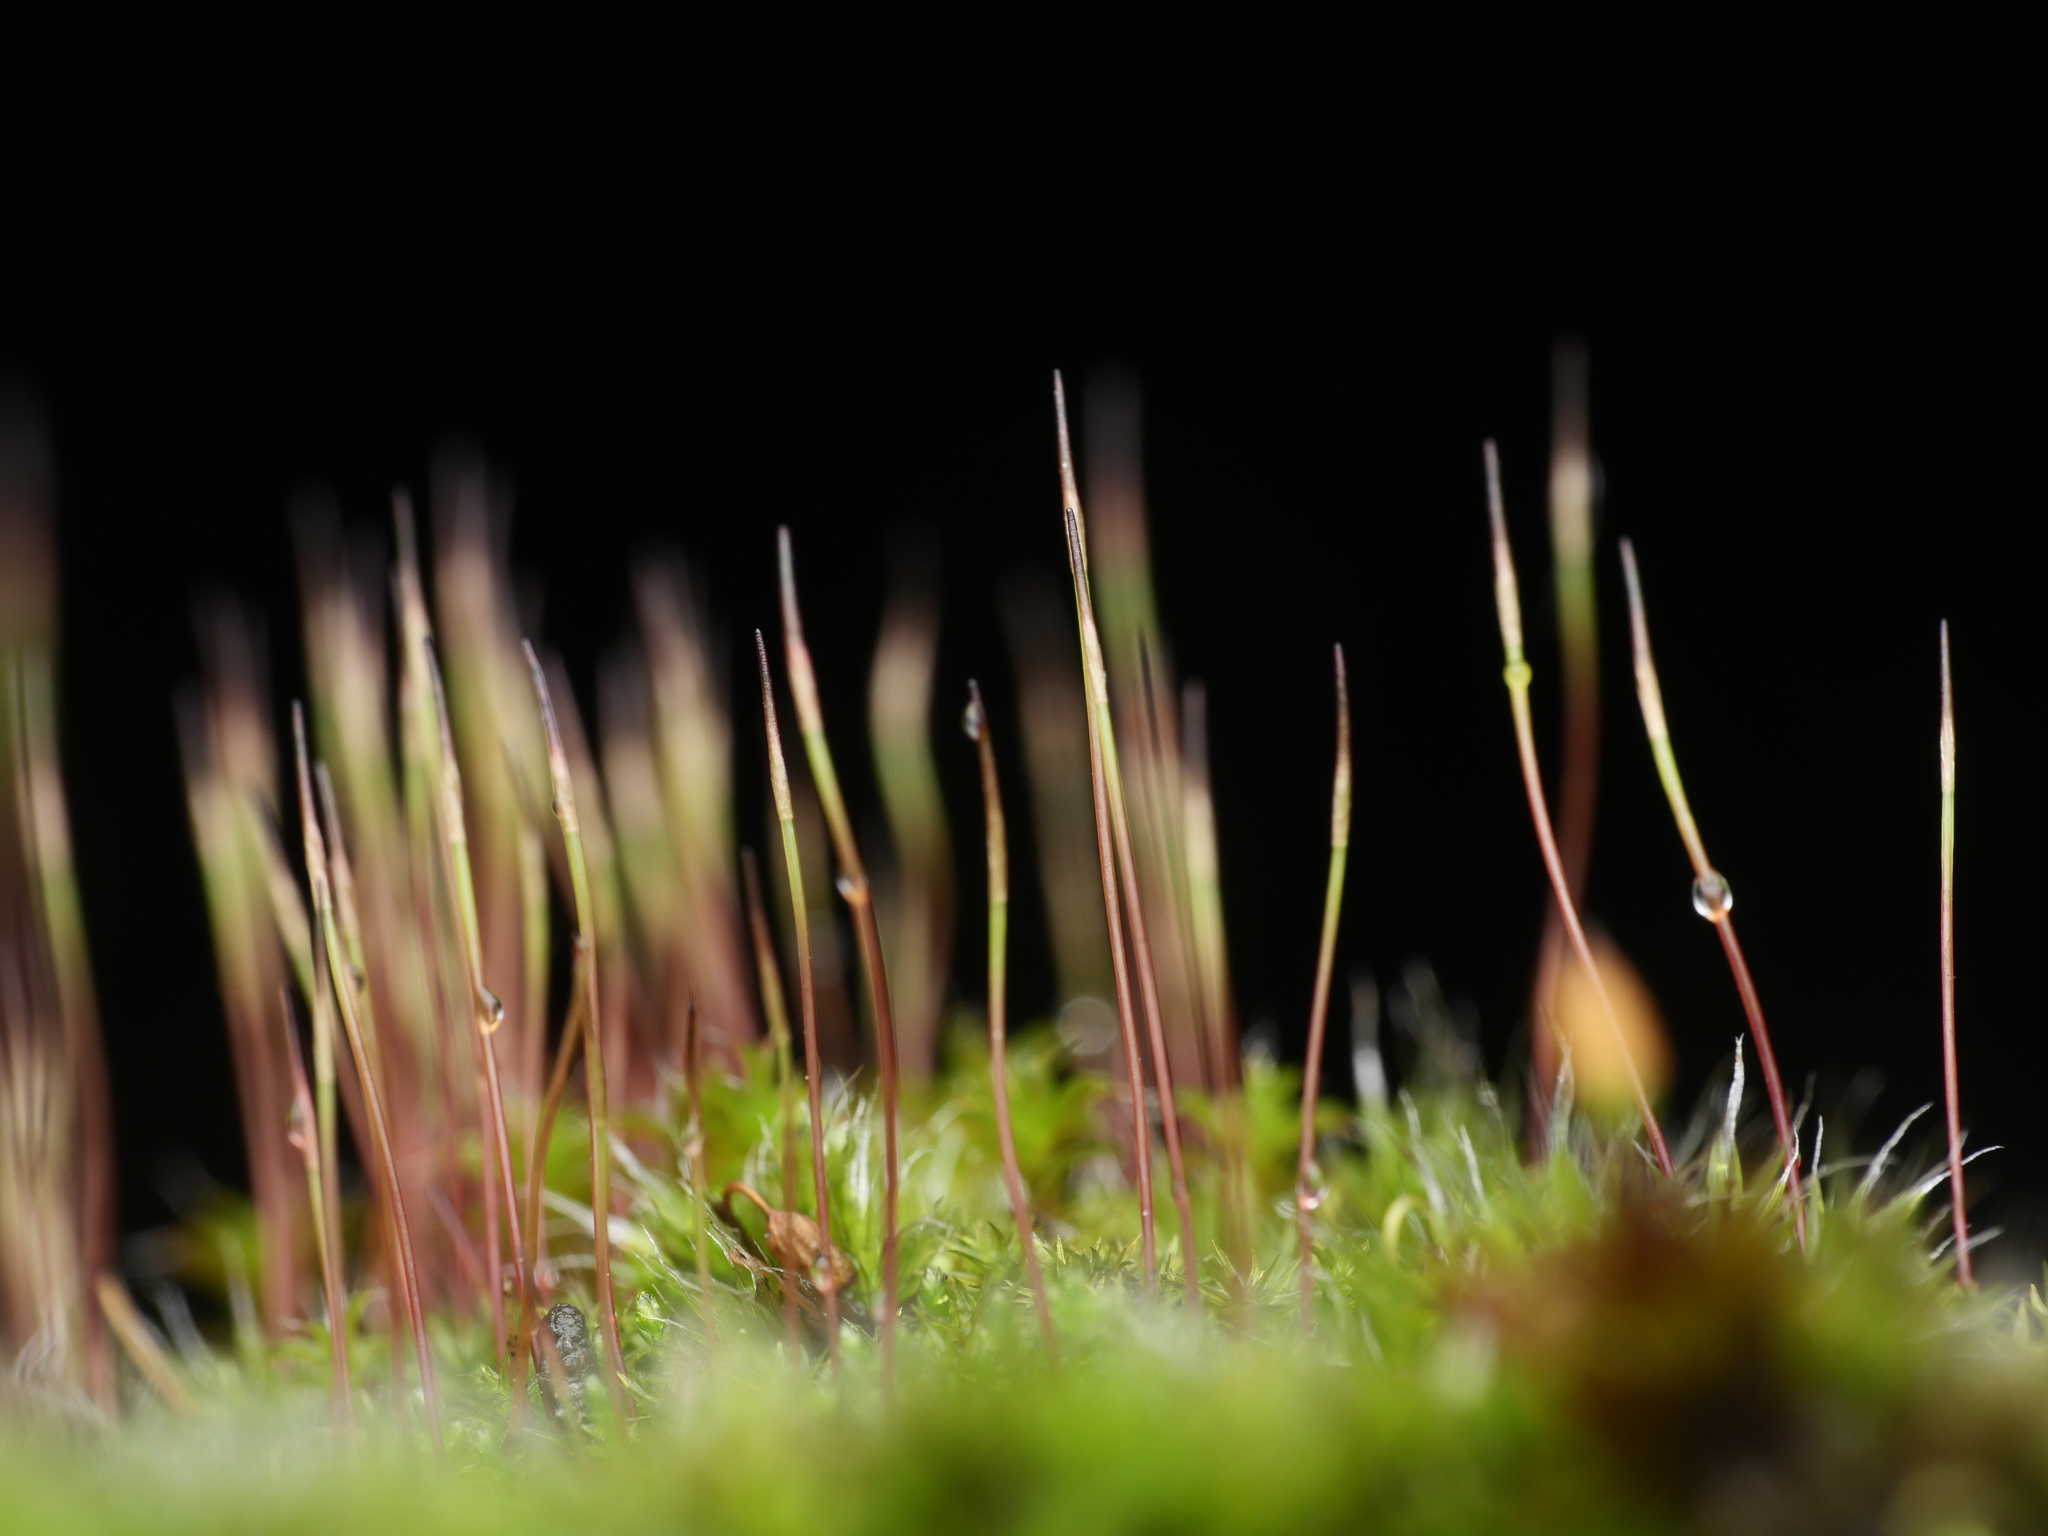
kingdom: Plantae
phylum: Bryophyta
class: Bryopsida
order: Dicranales
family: Ditrichaceae
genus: Ceratodon
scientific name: Ceratodon purpureus
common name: Redshank
